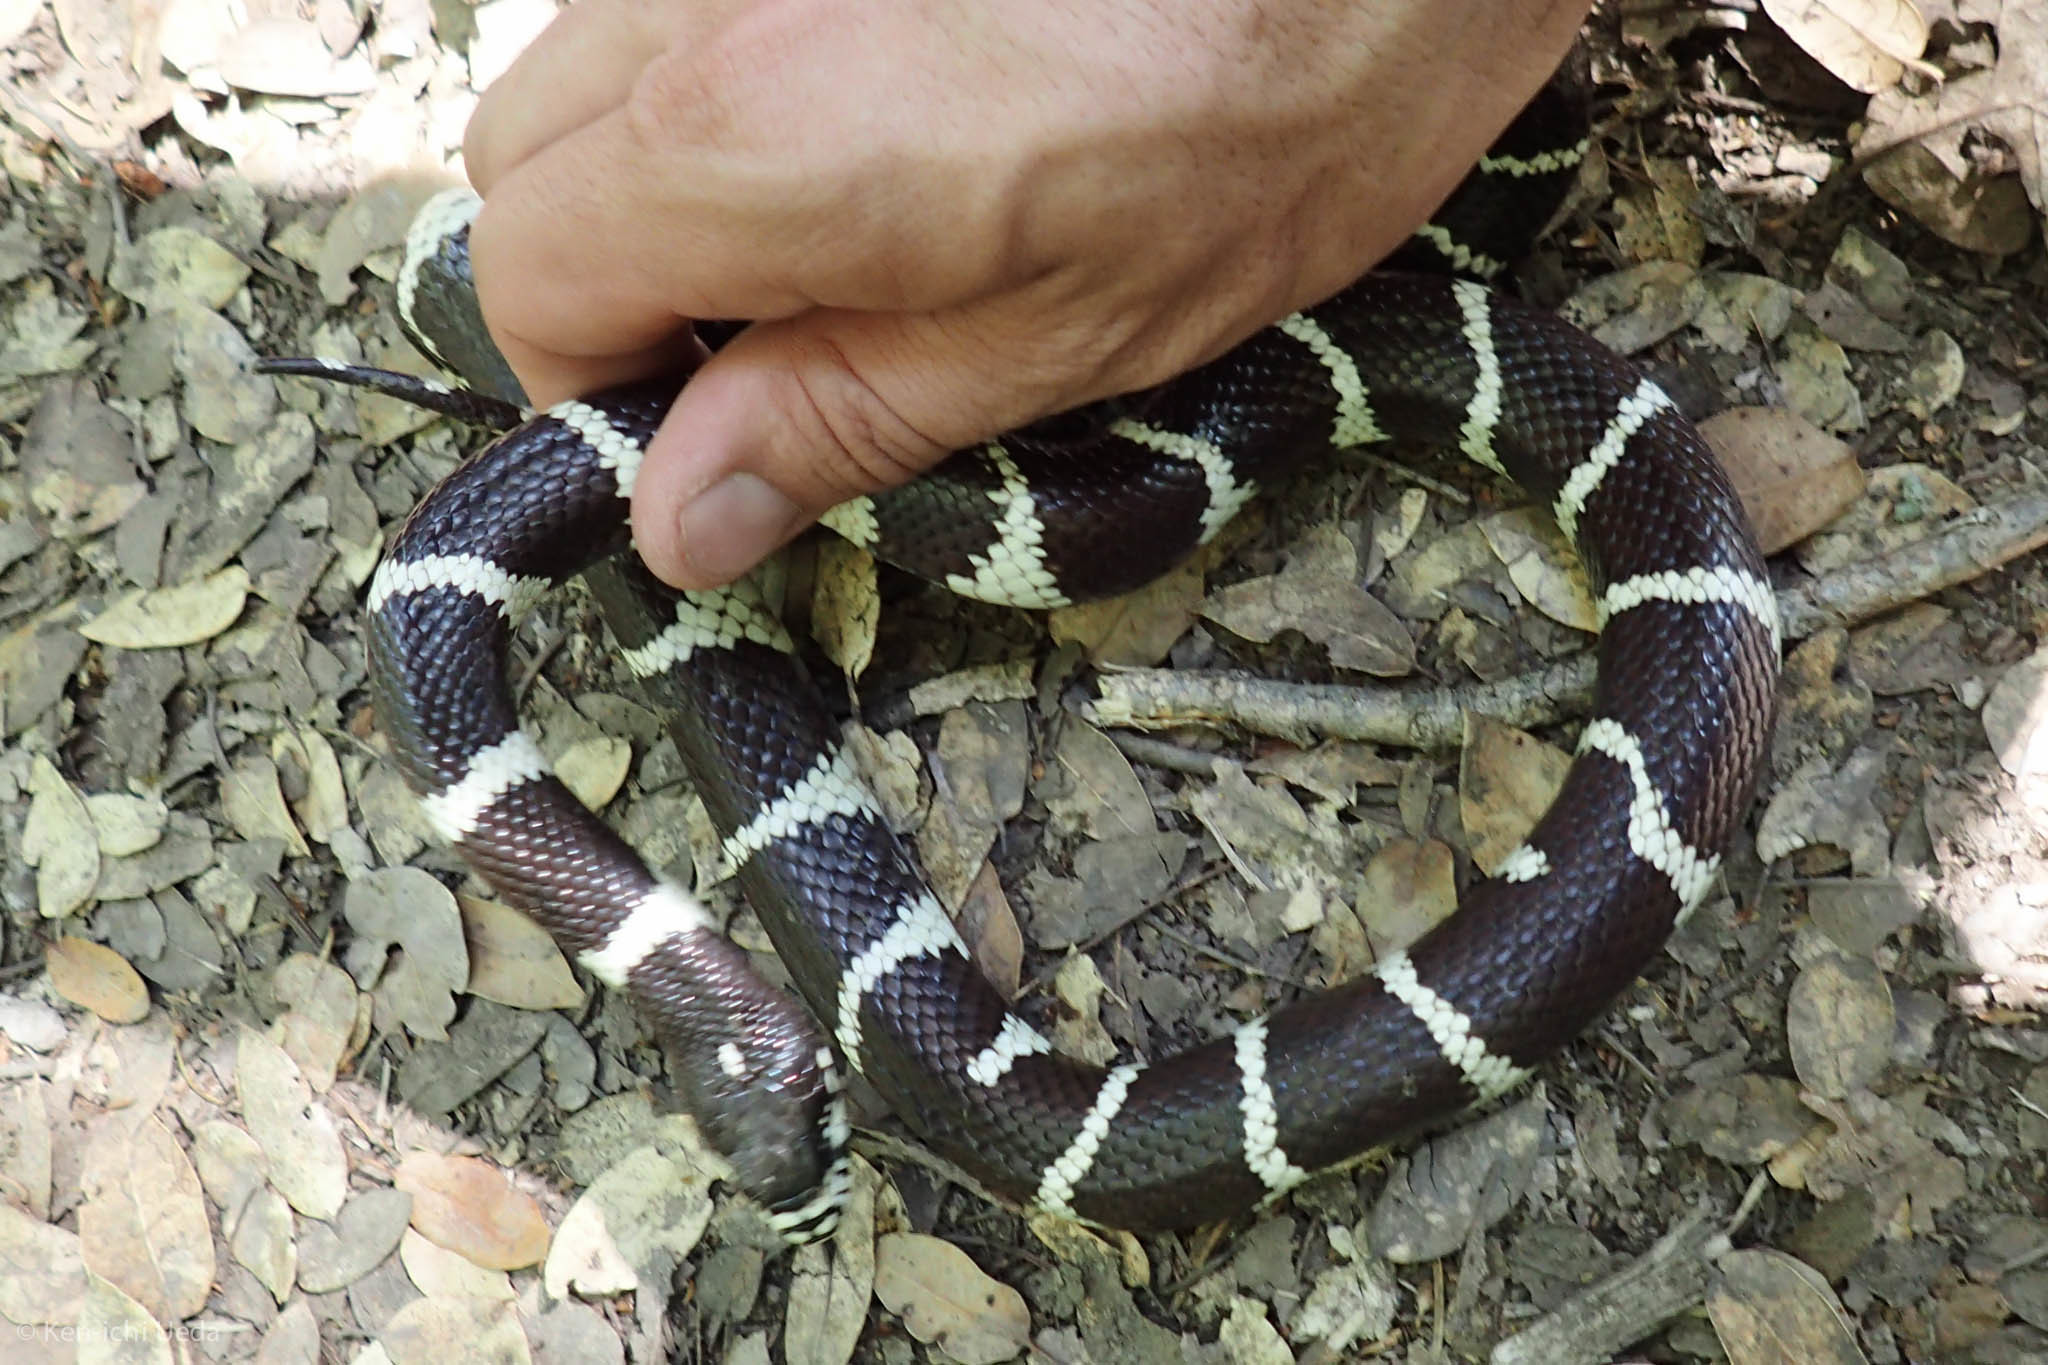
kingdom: Animalia
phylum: Chordata
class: Squamata
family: Colubridae
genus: Lampropeltis
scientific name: Lampropeltis californiae
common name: California kingsnake
